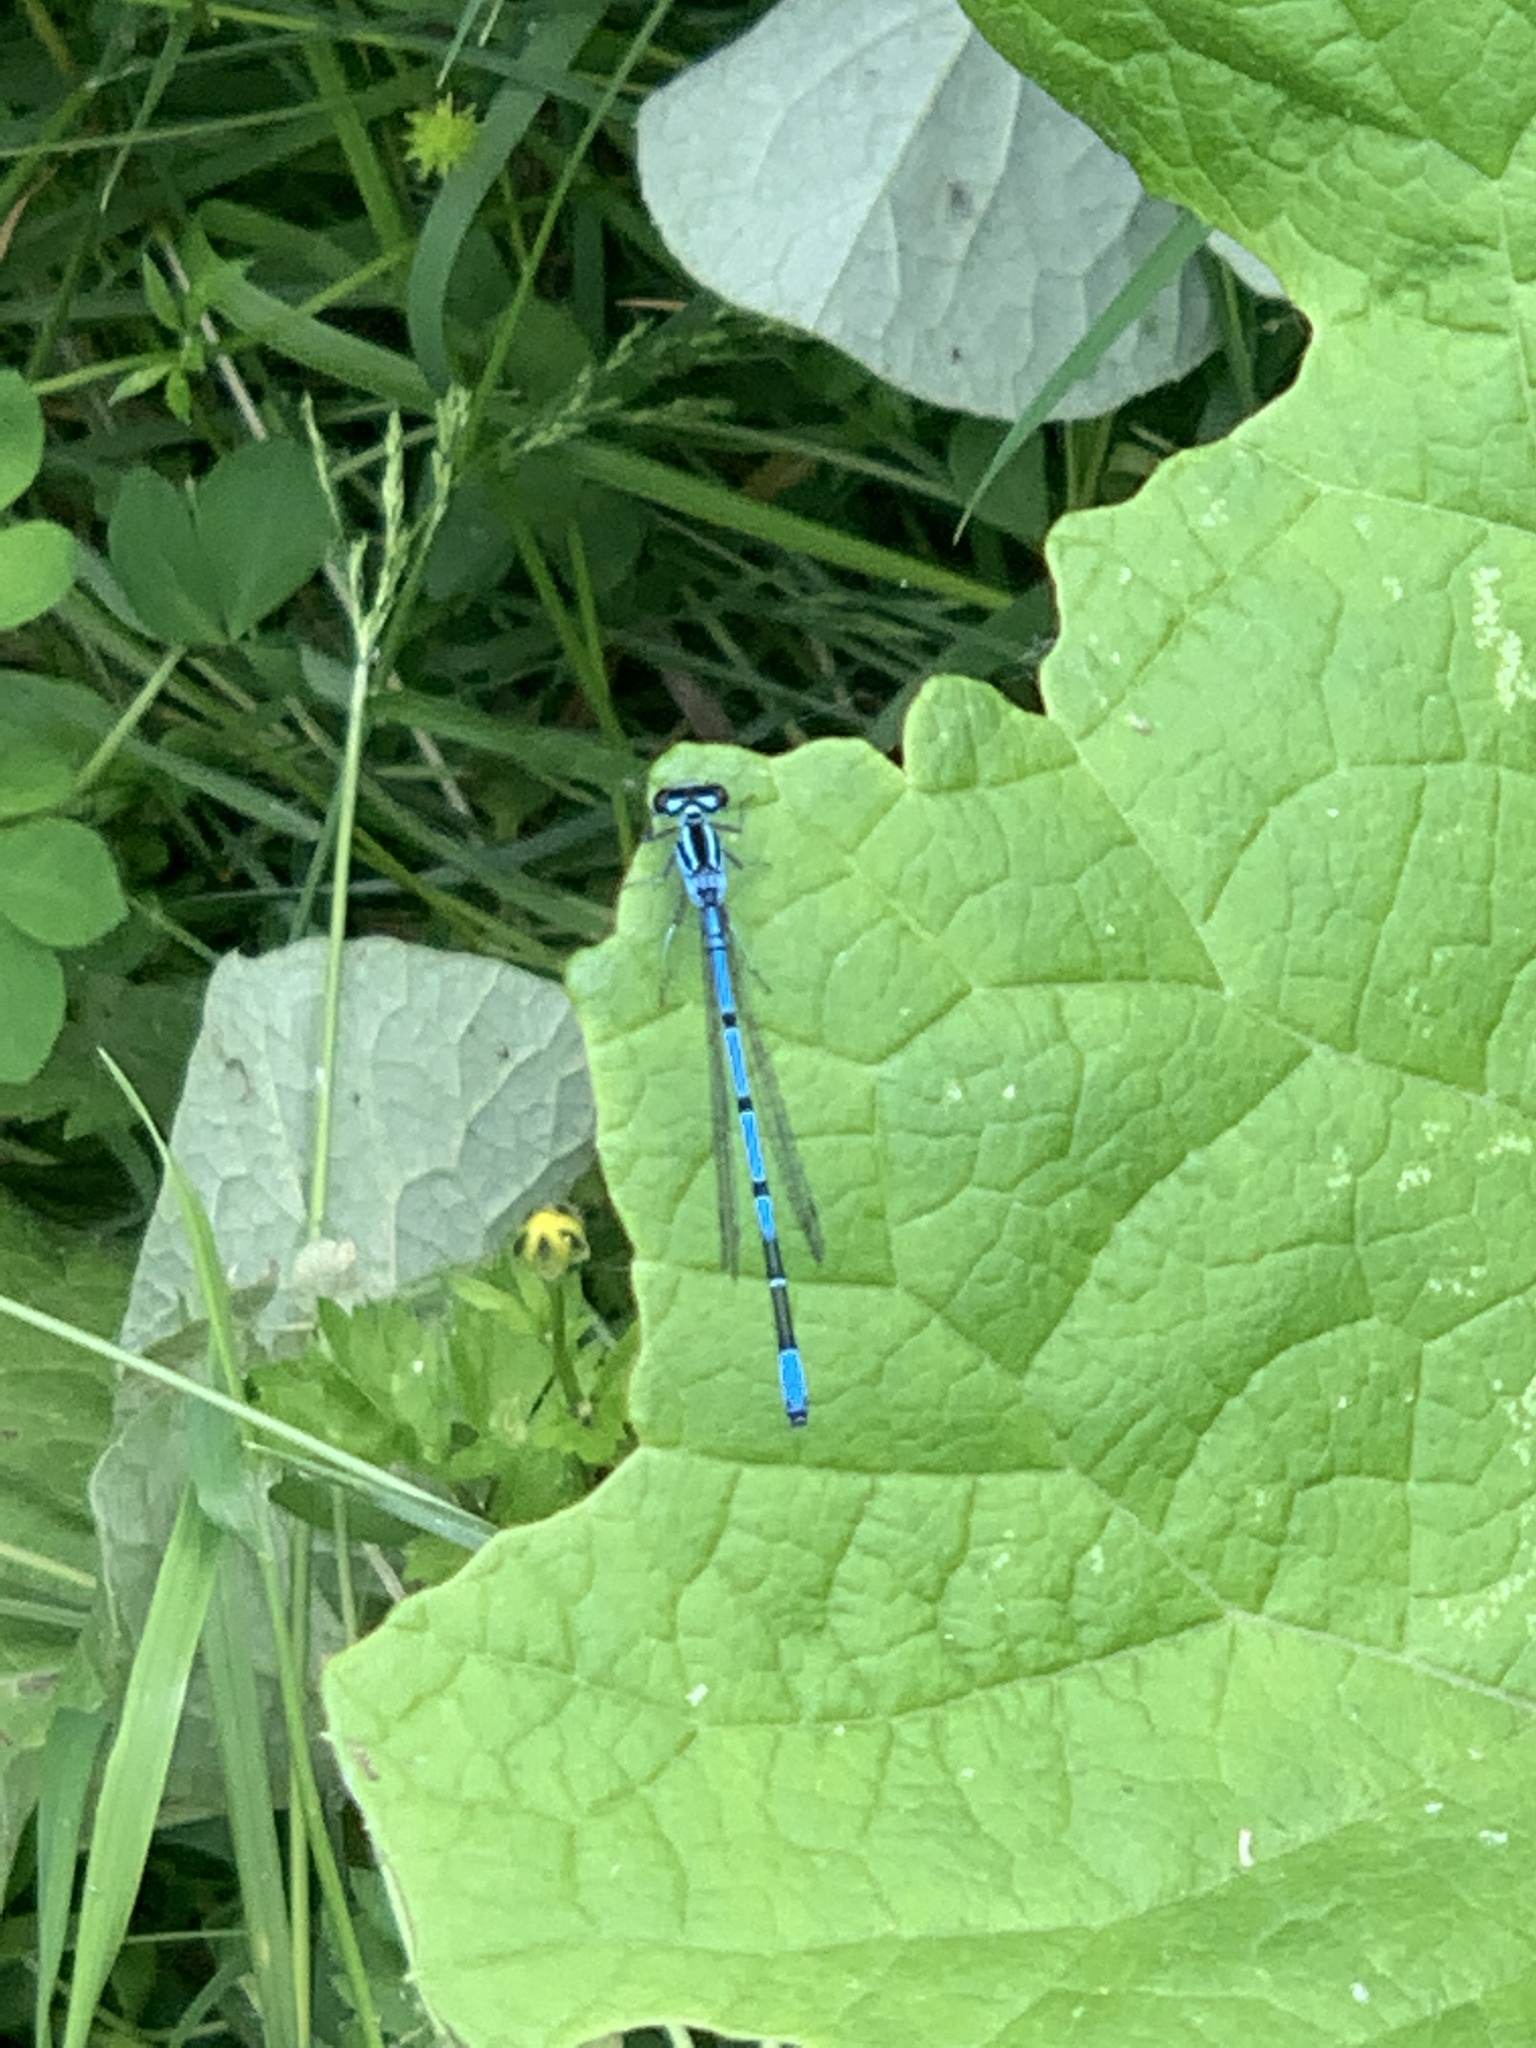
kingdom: Animalia
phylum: Arthropoda
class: Insecta
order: Odonata
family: Coenagrionidae
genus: Coenagrion
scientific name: Coenagrion puella
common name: Azure damselfly
